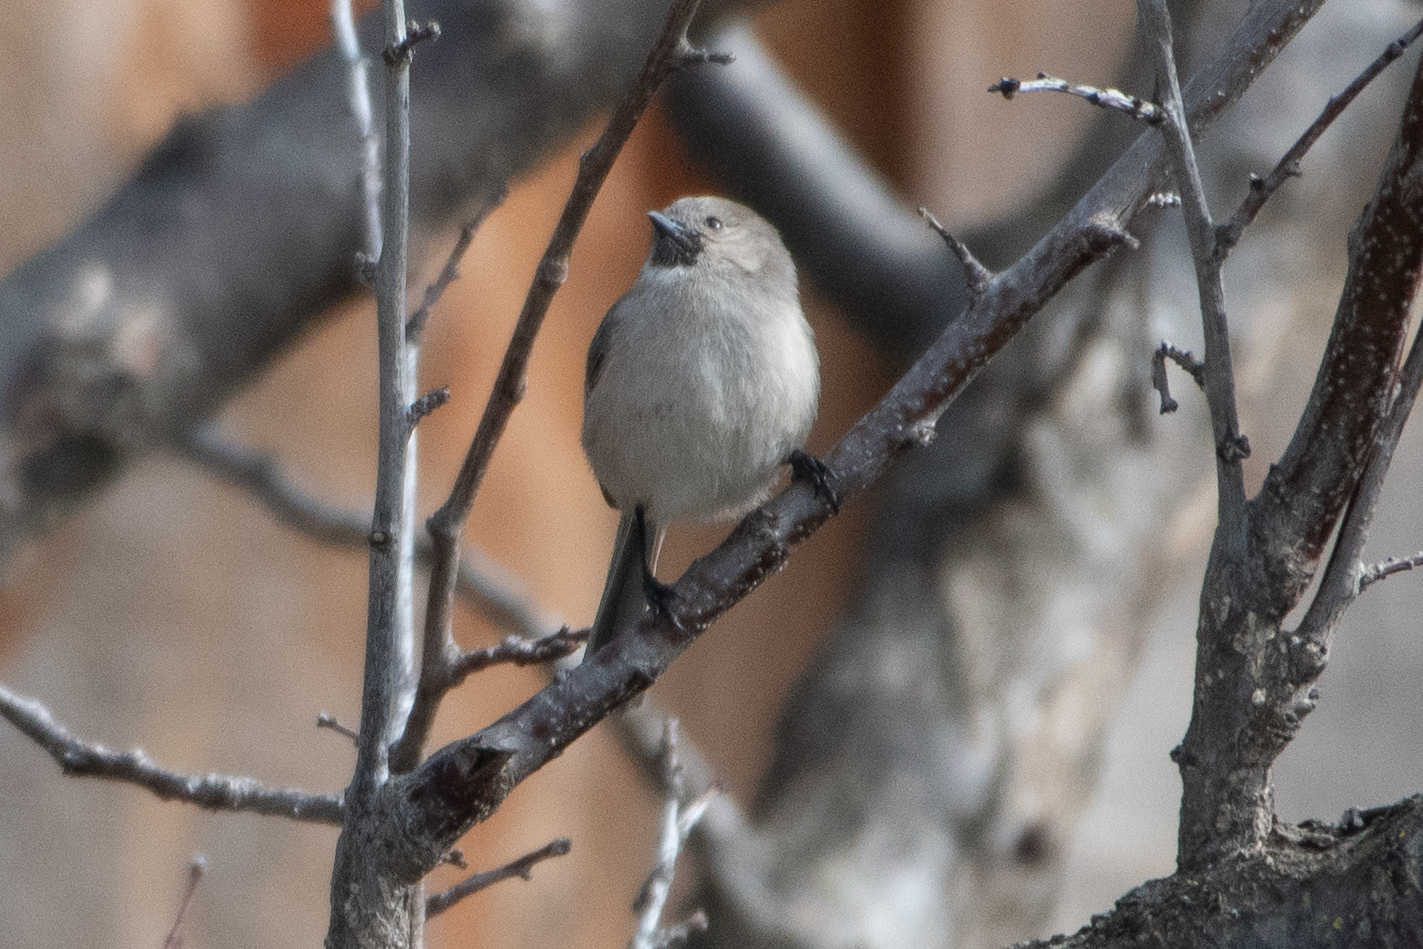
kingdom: Animalia
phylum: Chordata
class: Aves
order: Passeriformes
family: Aegithalidae
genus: Psaltriparus
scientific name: Psaltriparus minimus
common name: American bushtit
